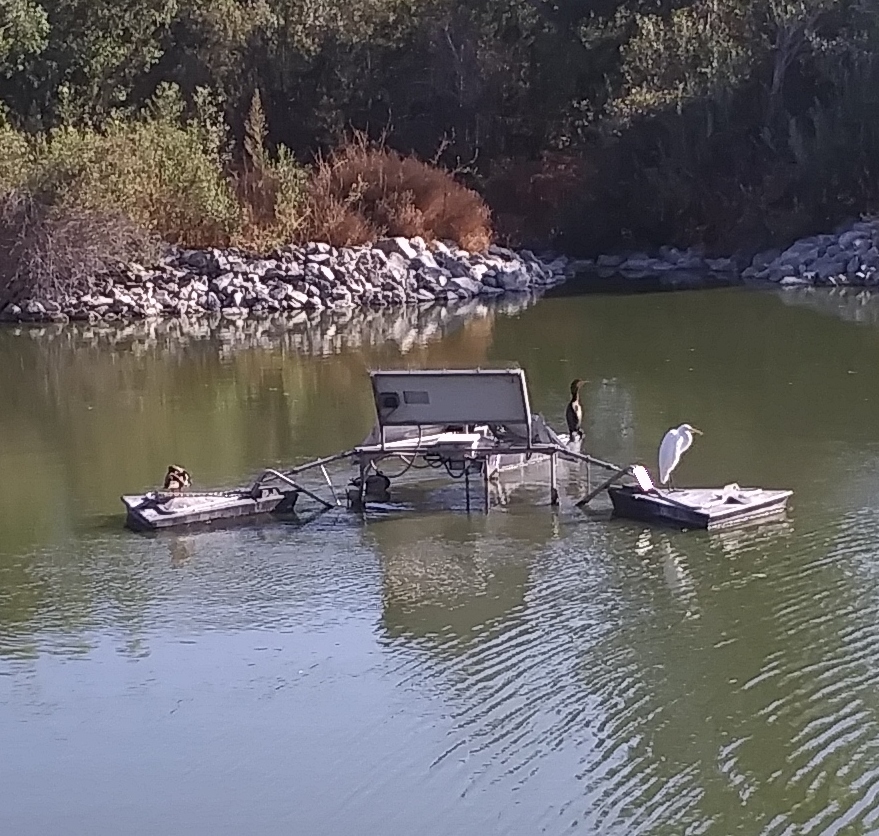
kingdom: Animalia
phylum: Chordata
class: Aves
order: Pelecaniformes
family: Ardeidae
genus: Ardea
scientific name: Ardea alba
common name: Great egret
